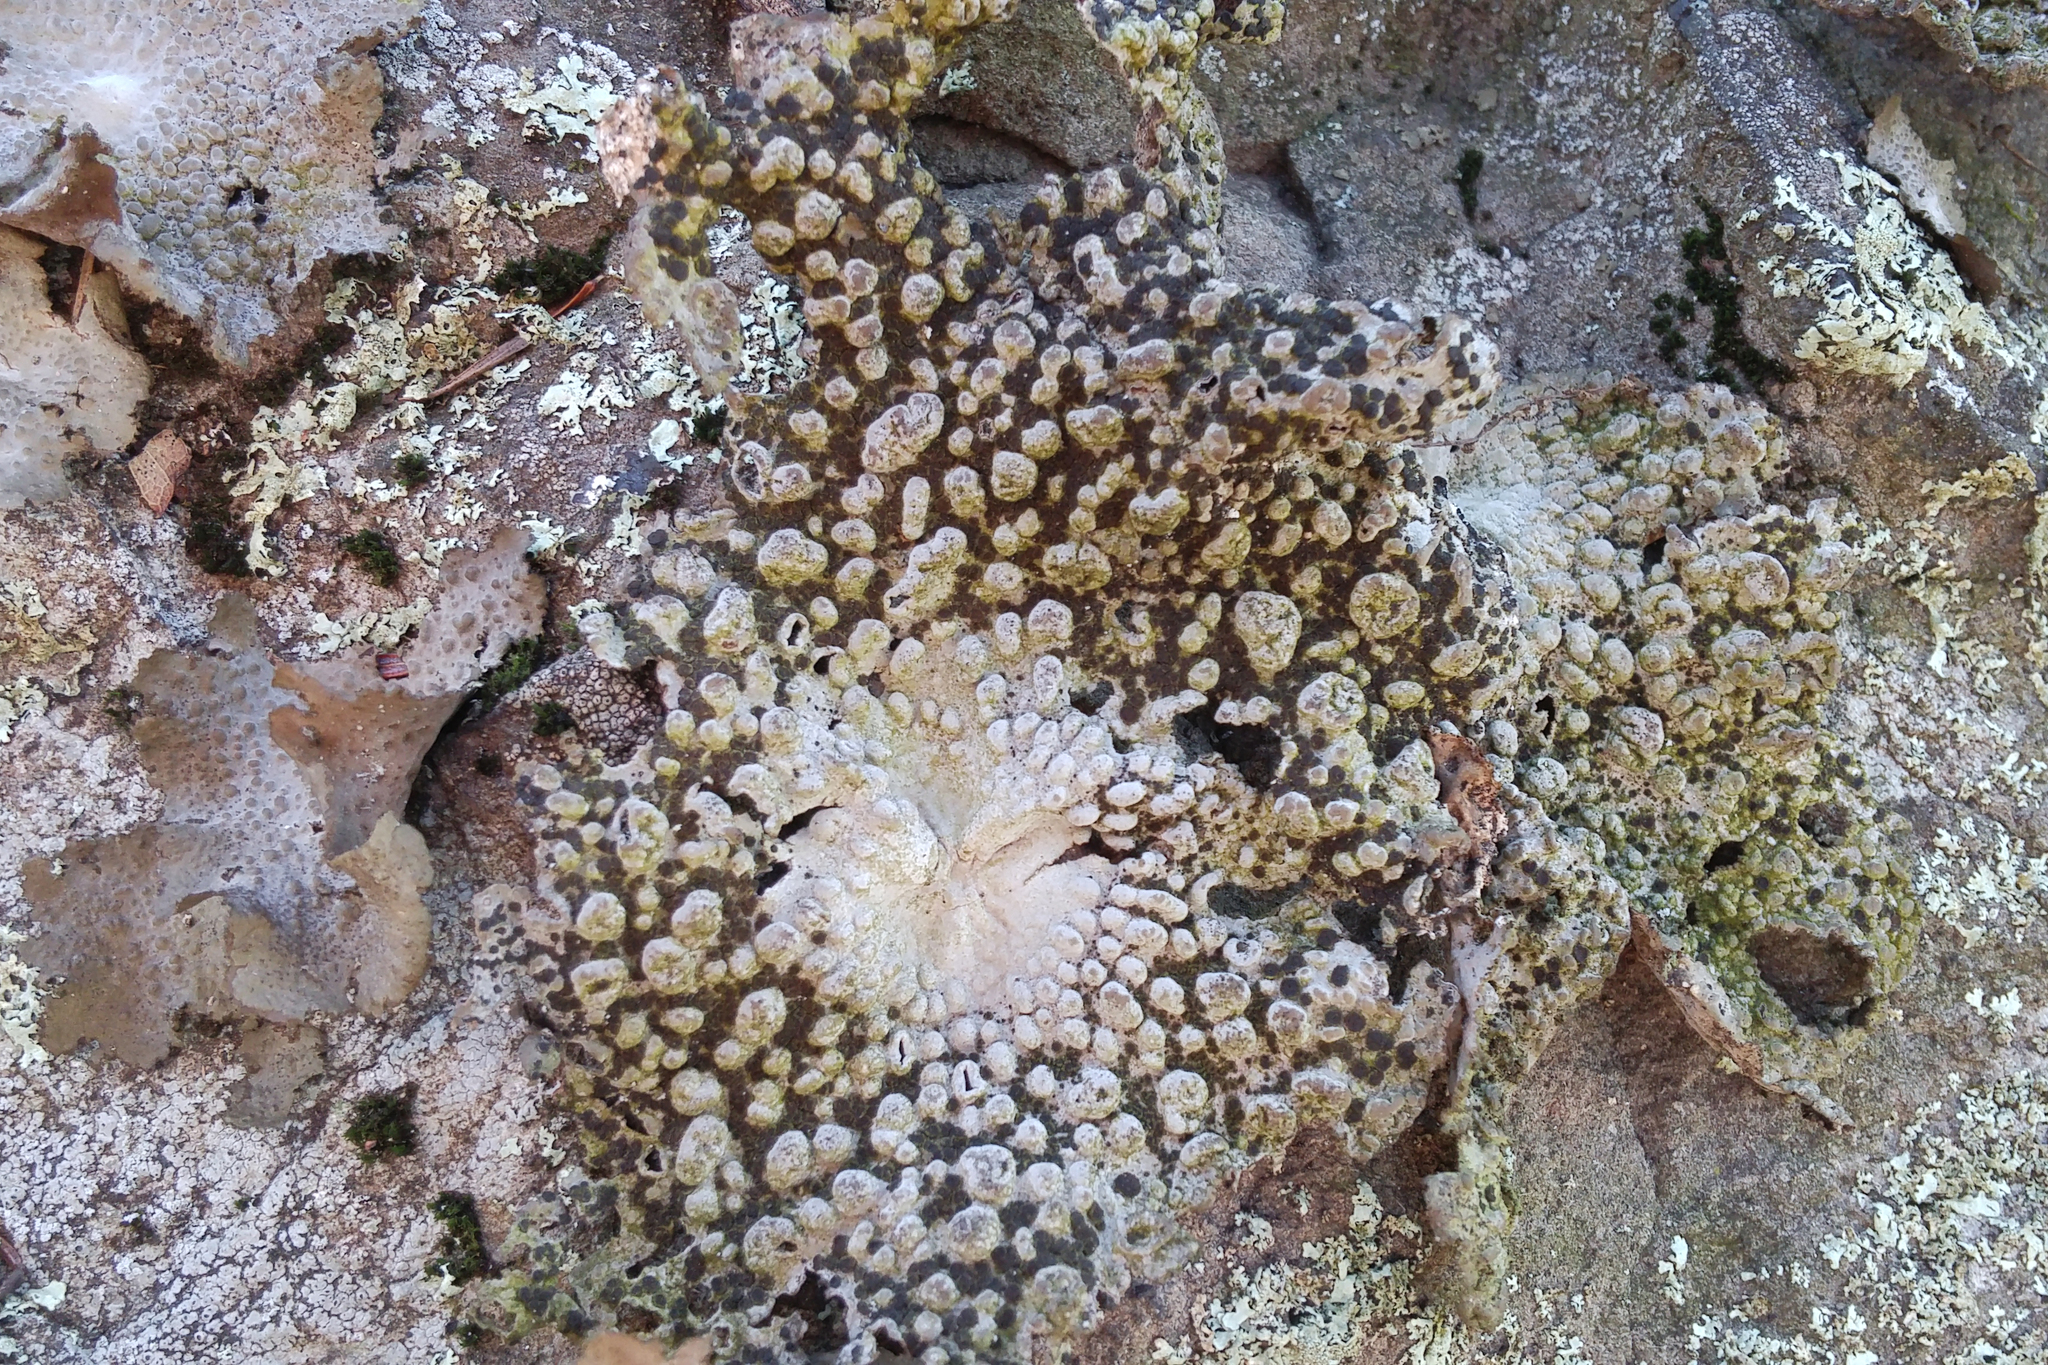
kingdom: Fungi
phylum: Ascomycota
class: Lecanoromycetes
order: Umbilicariales
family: Umbilicariaceae
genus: Lasallia
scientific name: Lasallia papulosa
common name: Common toadskin lichen
